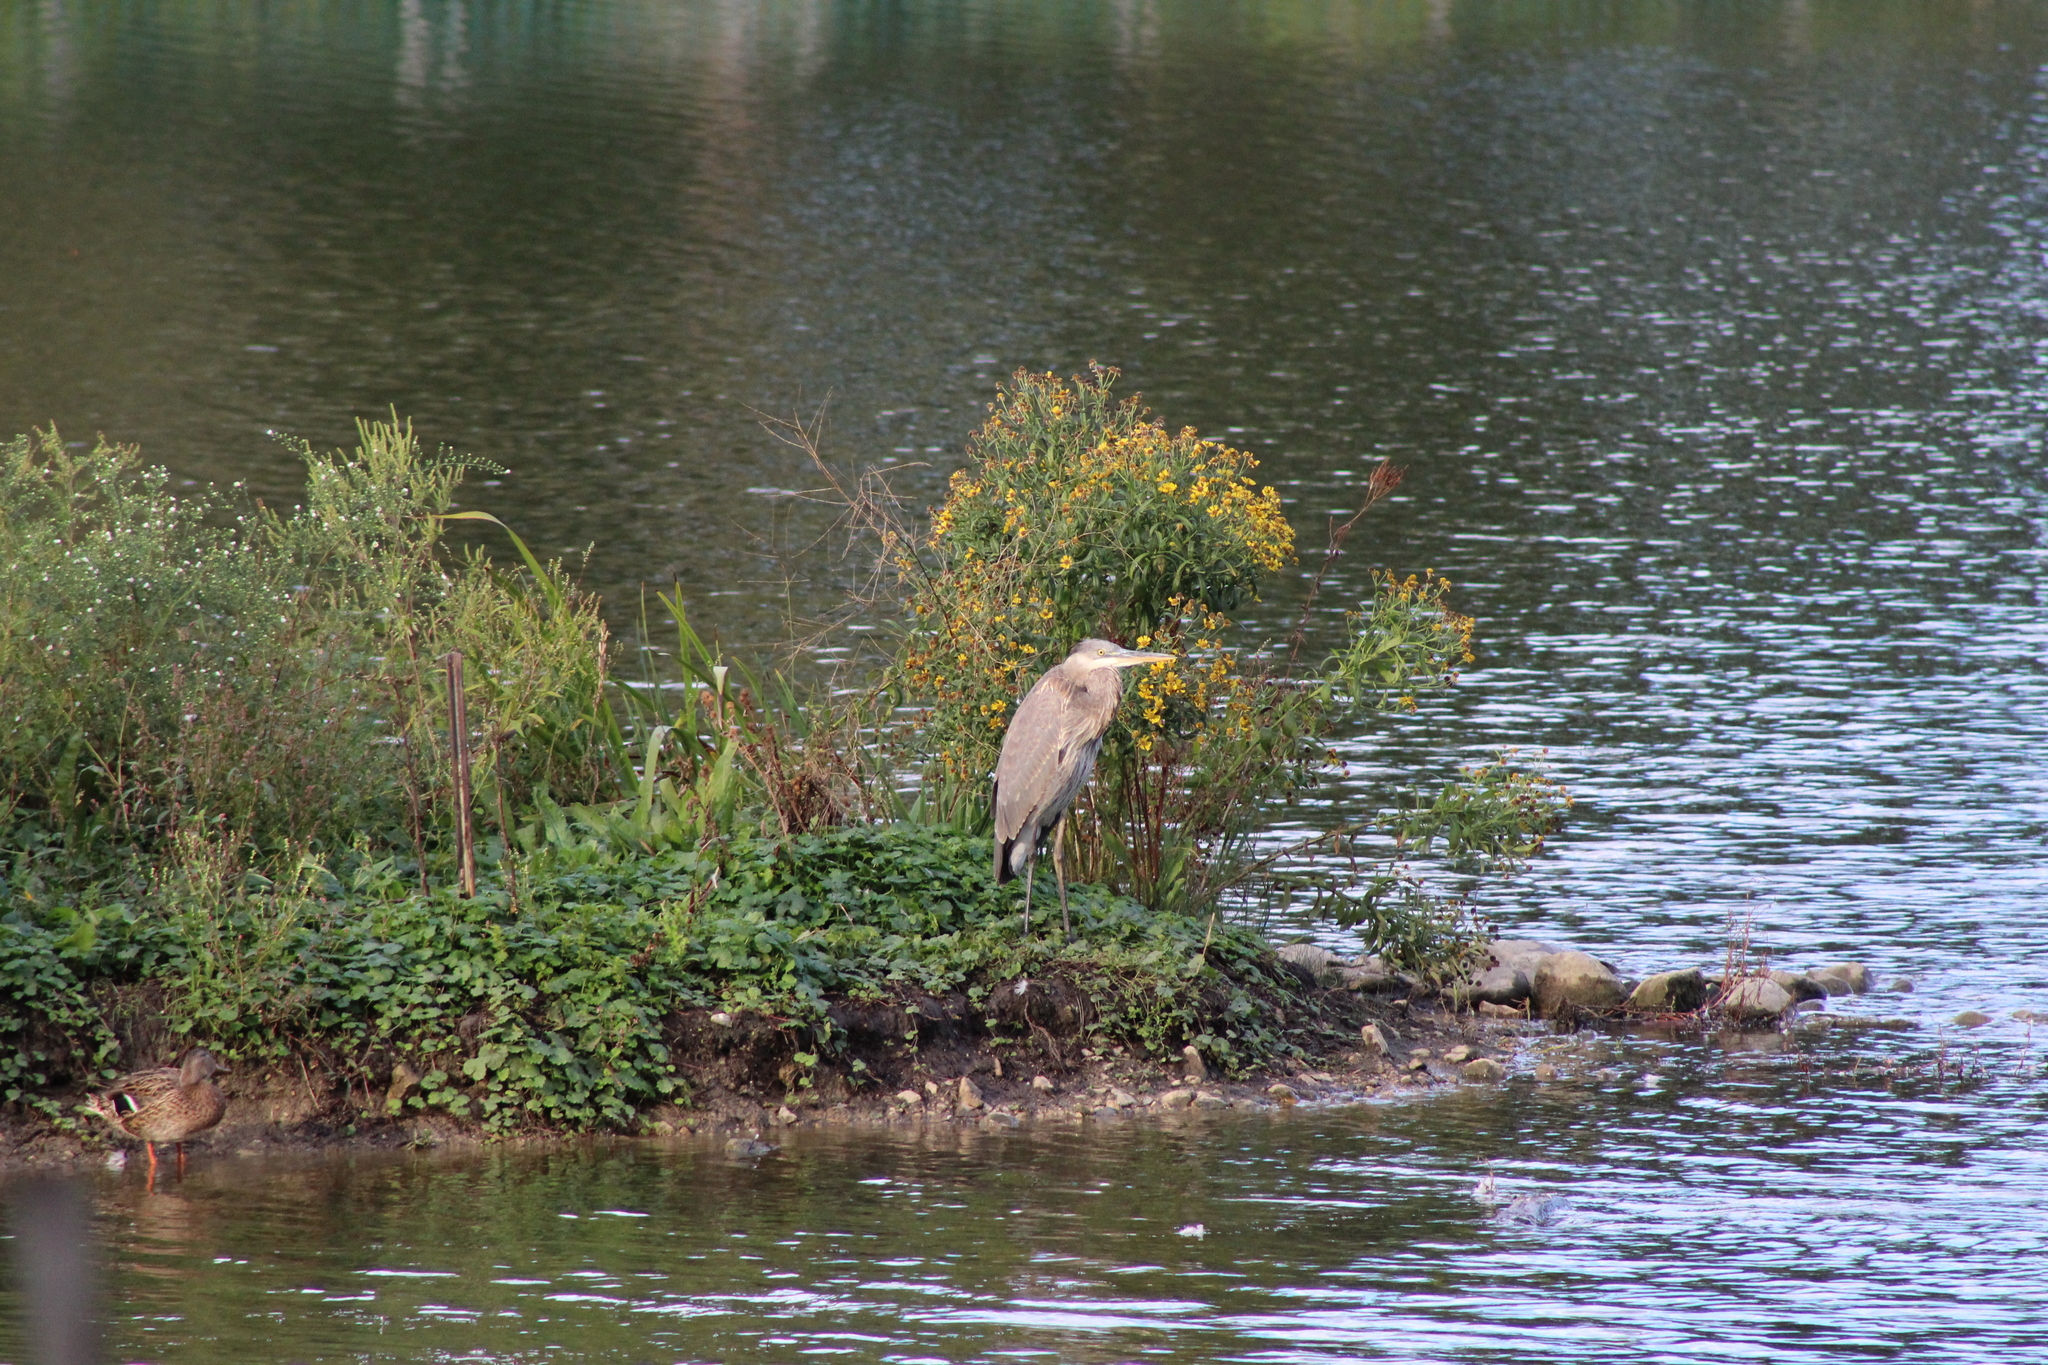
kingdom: Animalia
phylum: Chordata
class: Aves
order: Pelecaniformes
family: Ardeidae
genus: Ardea
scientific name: Ardea herodias
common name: Great blue heron
